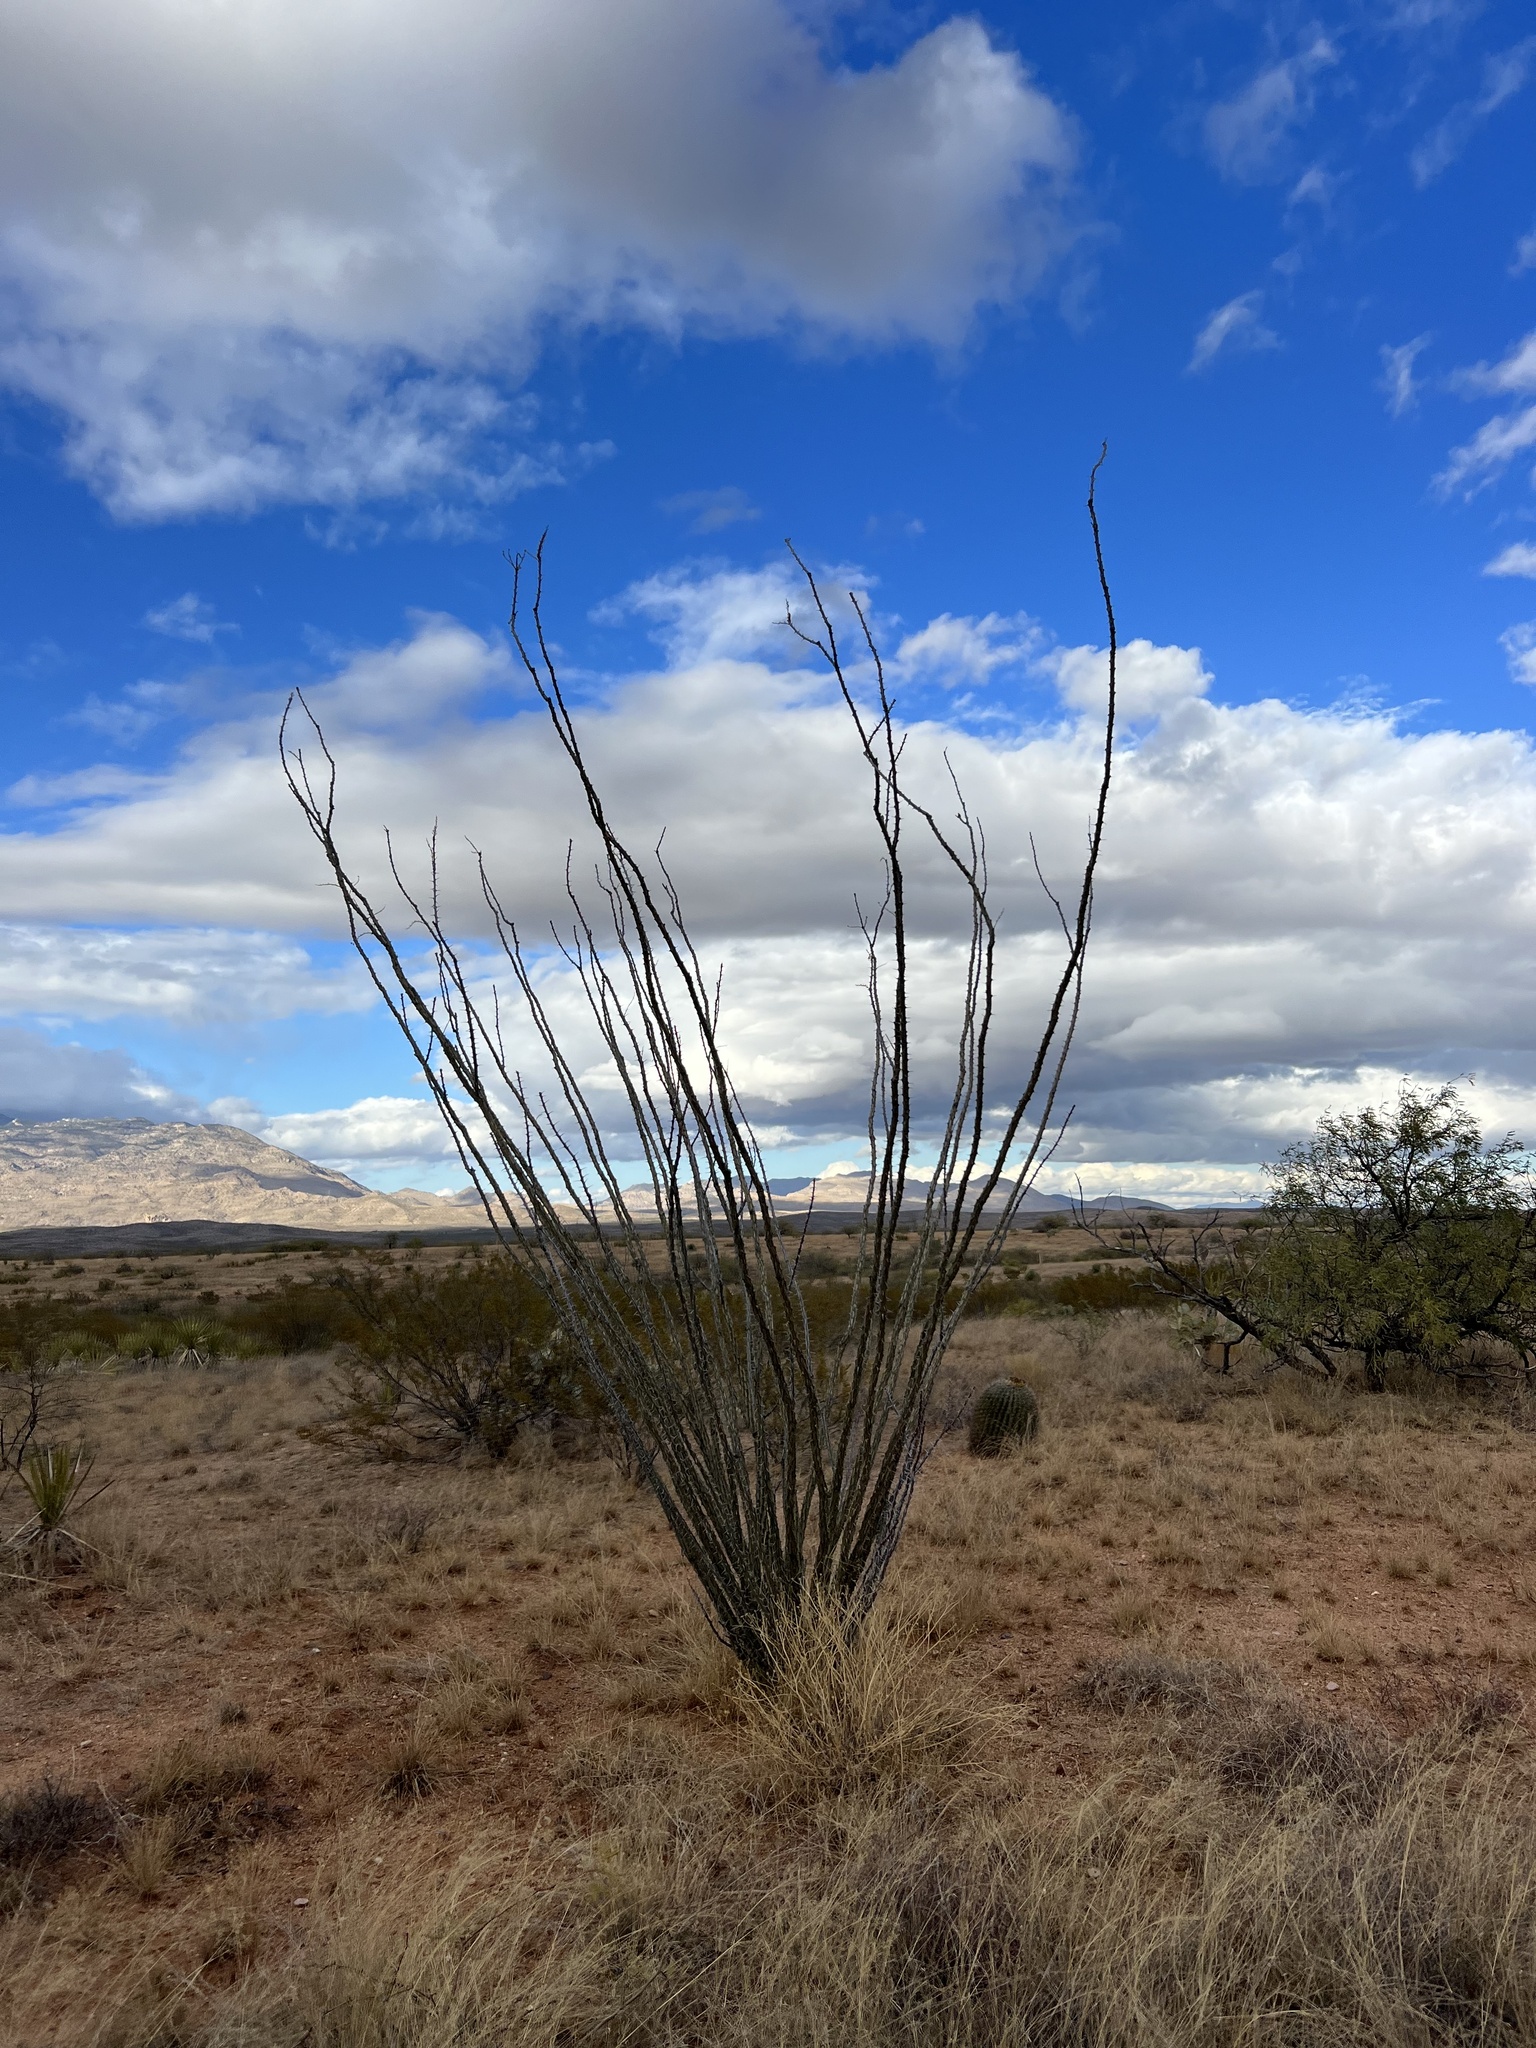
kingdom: Plantae
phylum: Tracheophyta
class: Magnoliopsida
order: Ericales
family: Fouquieriaceae
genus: Fouquieria
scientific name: Fouquieria splendens
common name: Vine-cactus
